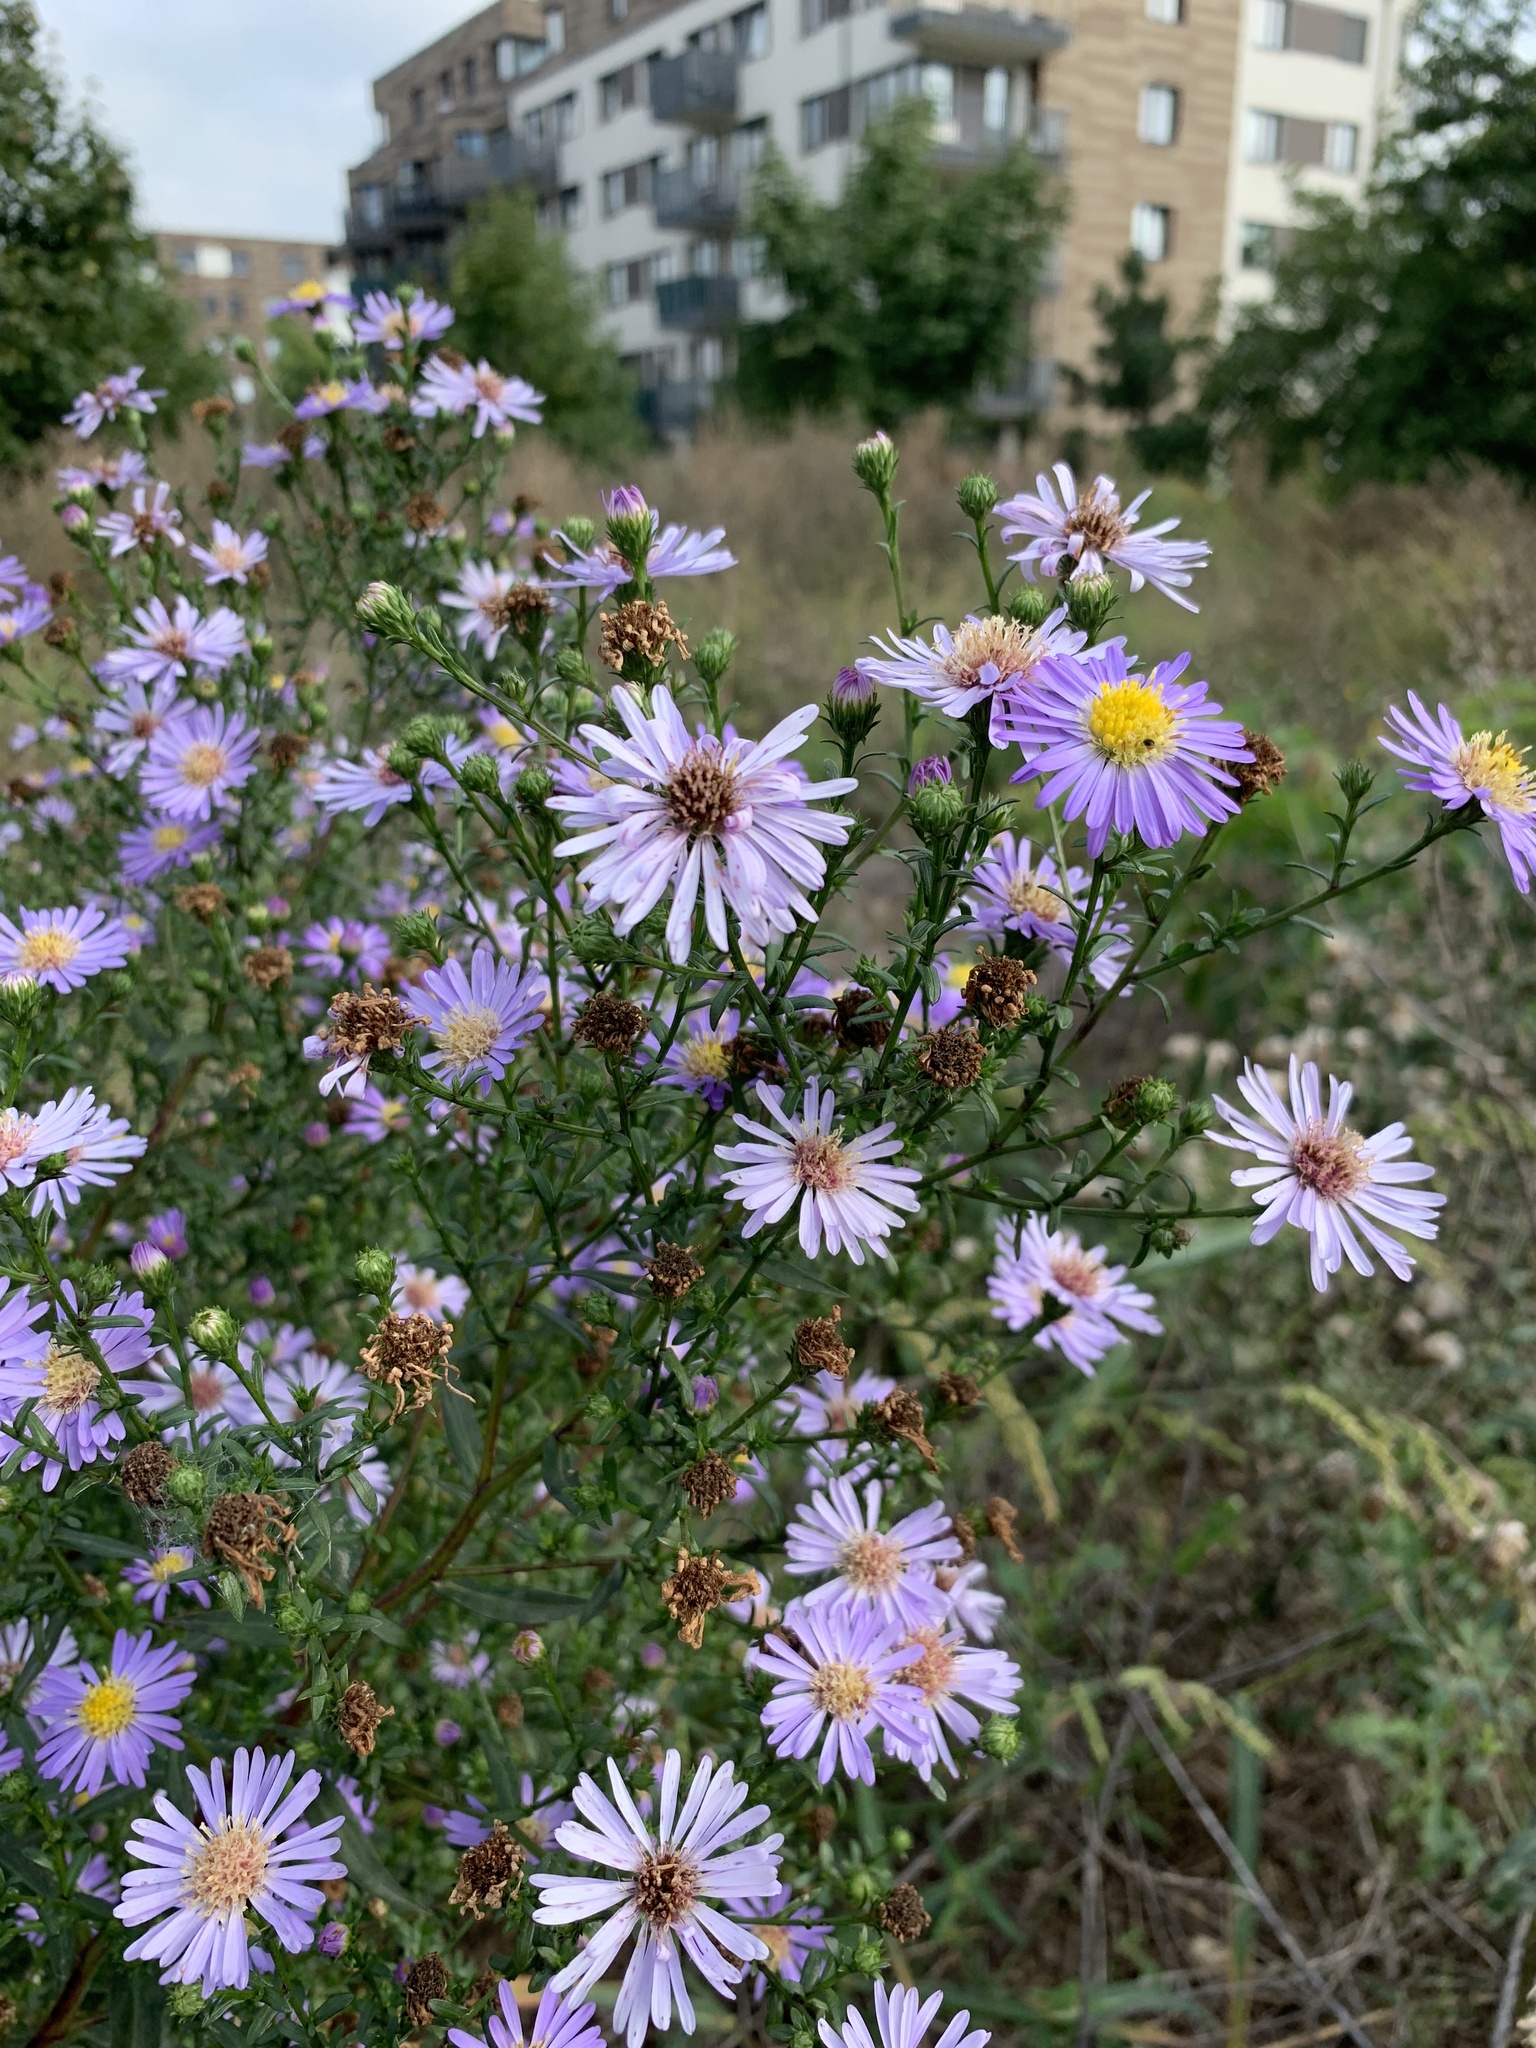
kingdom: Plantae
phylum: Tracheophyta
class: Magnoliopsida
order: Asterales
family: Asteraceae
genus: Symphyotrichum
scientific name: Symphyotrichum novi-belgii
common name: Michaelmas daisy
